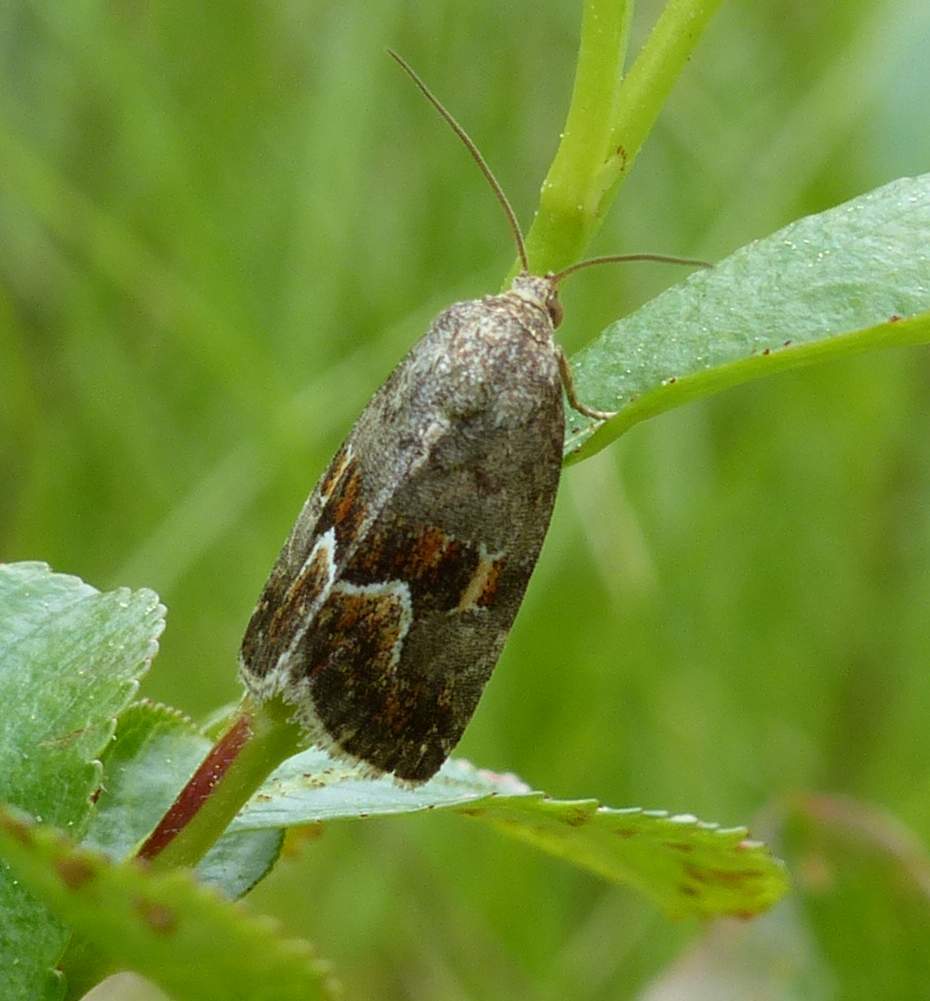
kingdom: Animalia
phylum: Arthropoda
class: Insecta
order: Lepidoptera
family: Noctuidae
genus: Deltote
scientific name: Deltote bellicula
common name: Bog glyph
